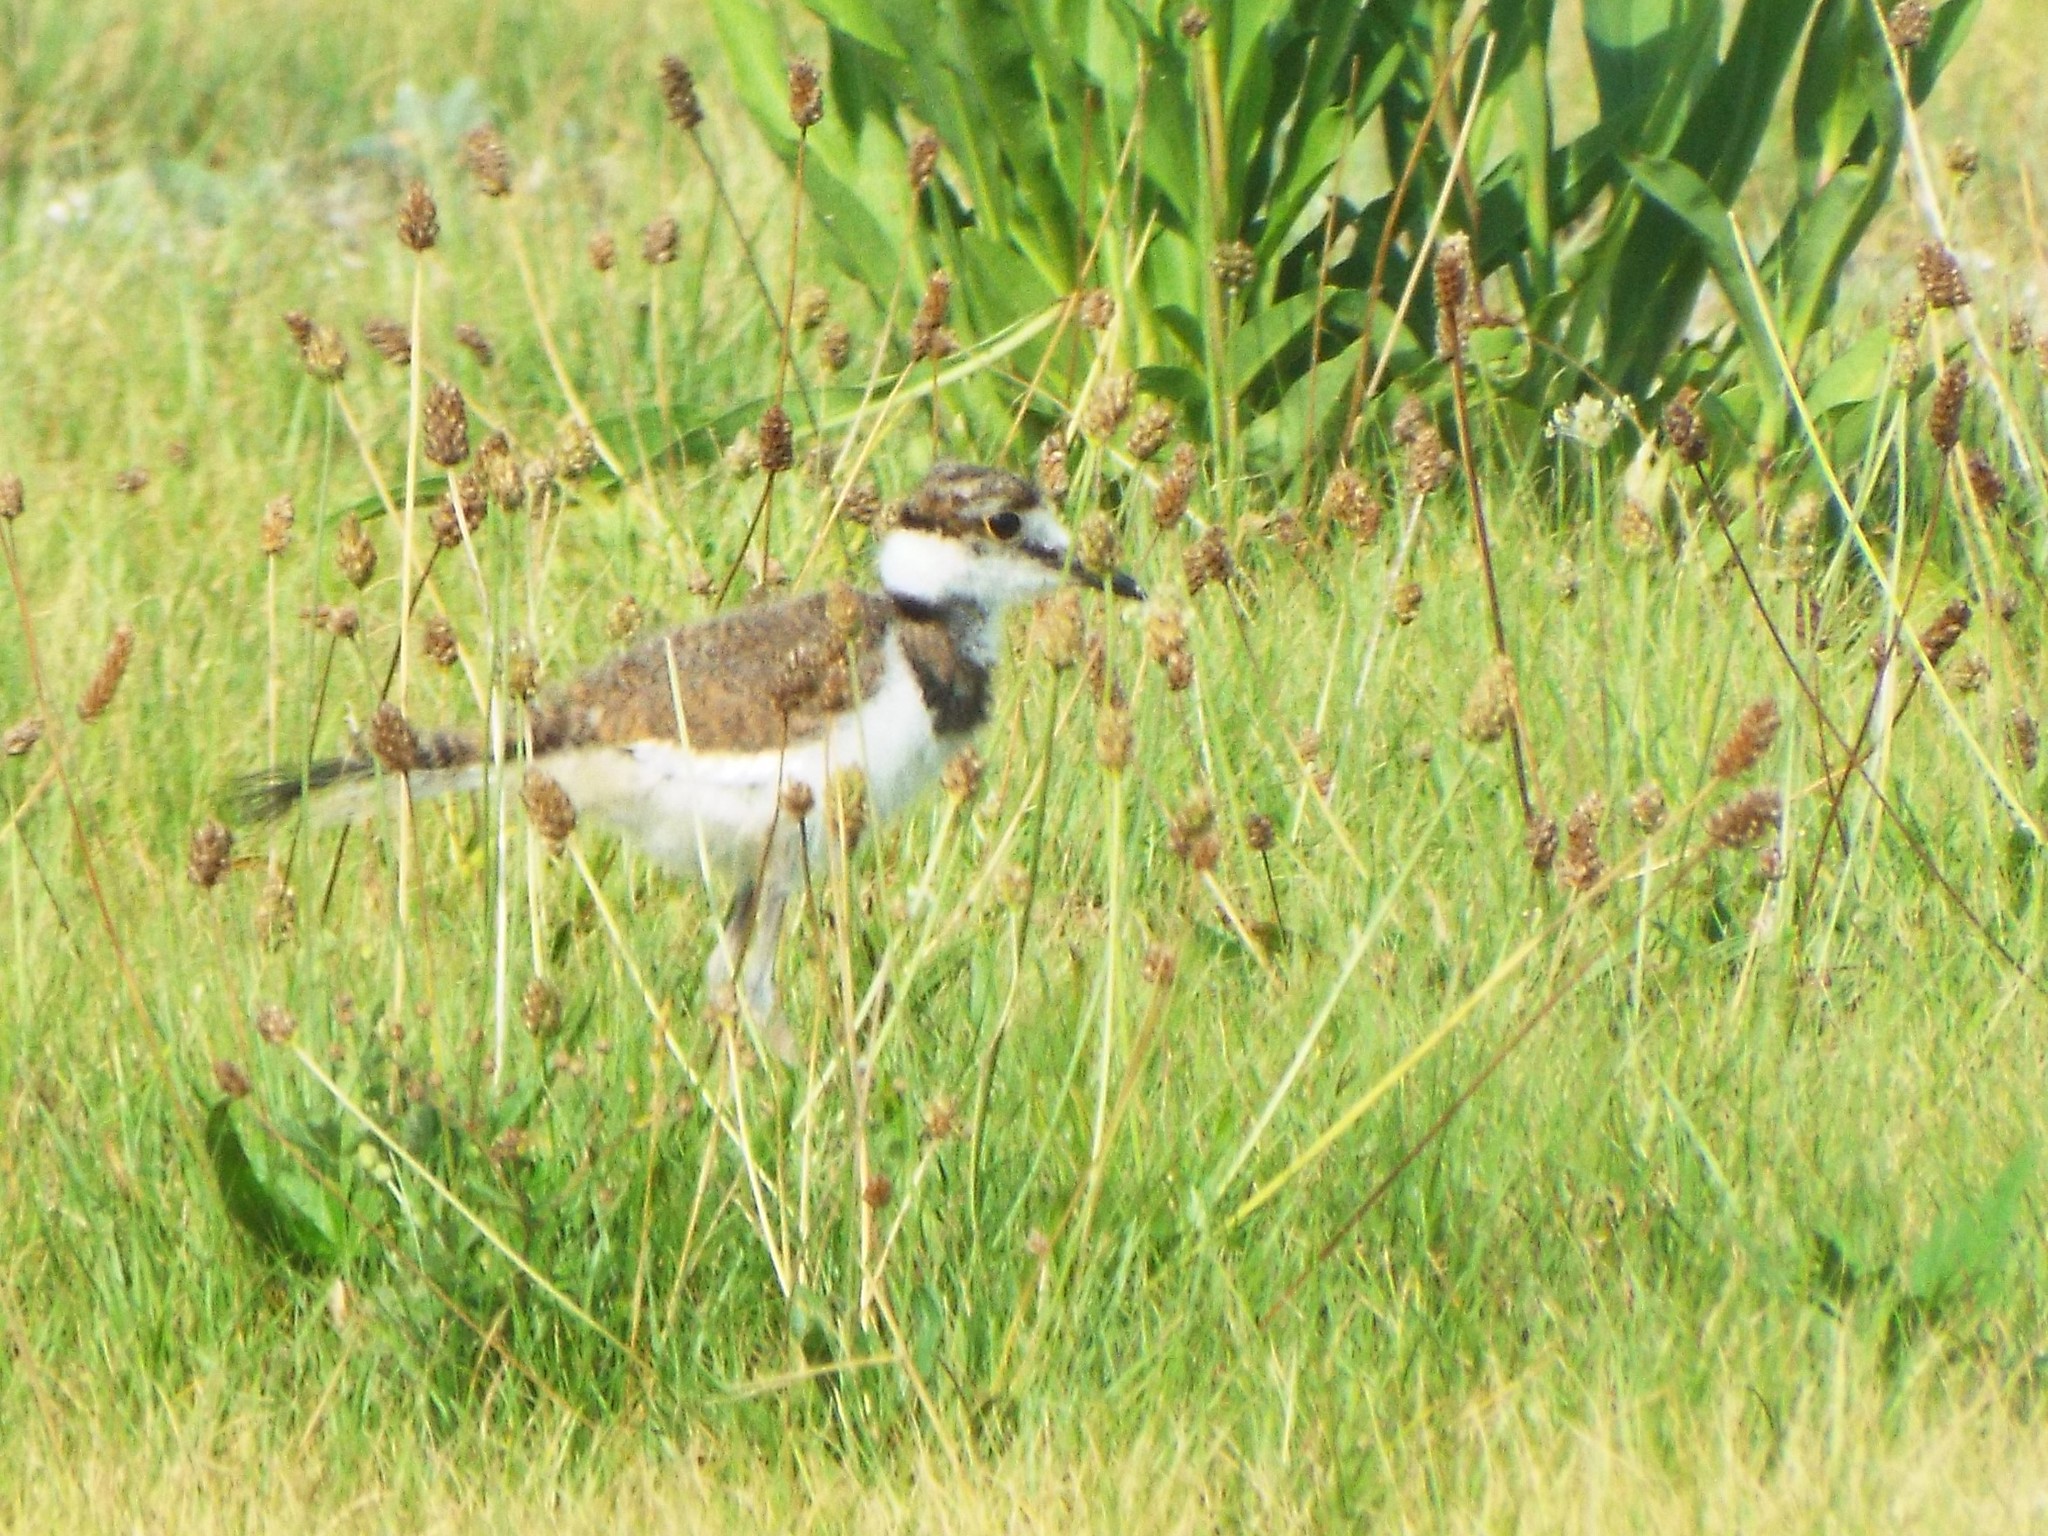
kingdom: Animalia
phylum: Chordata
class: Aves
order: Charadriiformes
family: Charadriidae
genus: Charadrius
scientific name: Charadrius vociferus
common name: Killdeer
